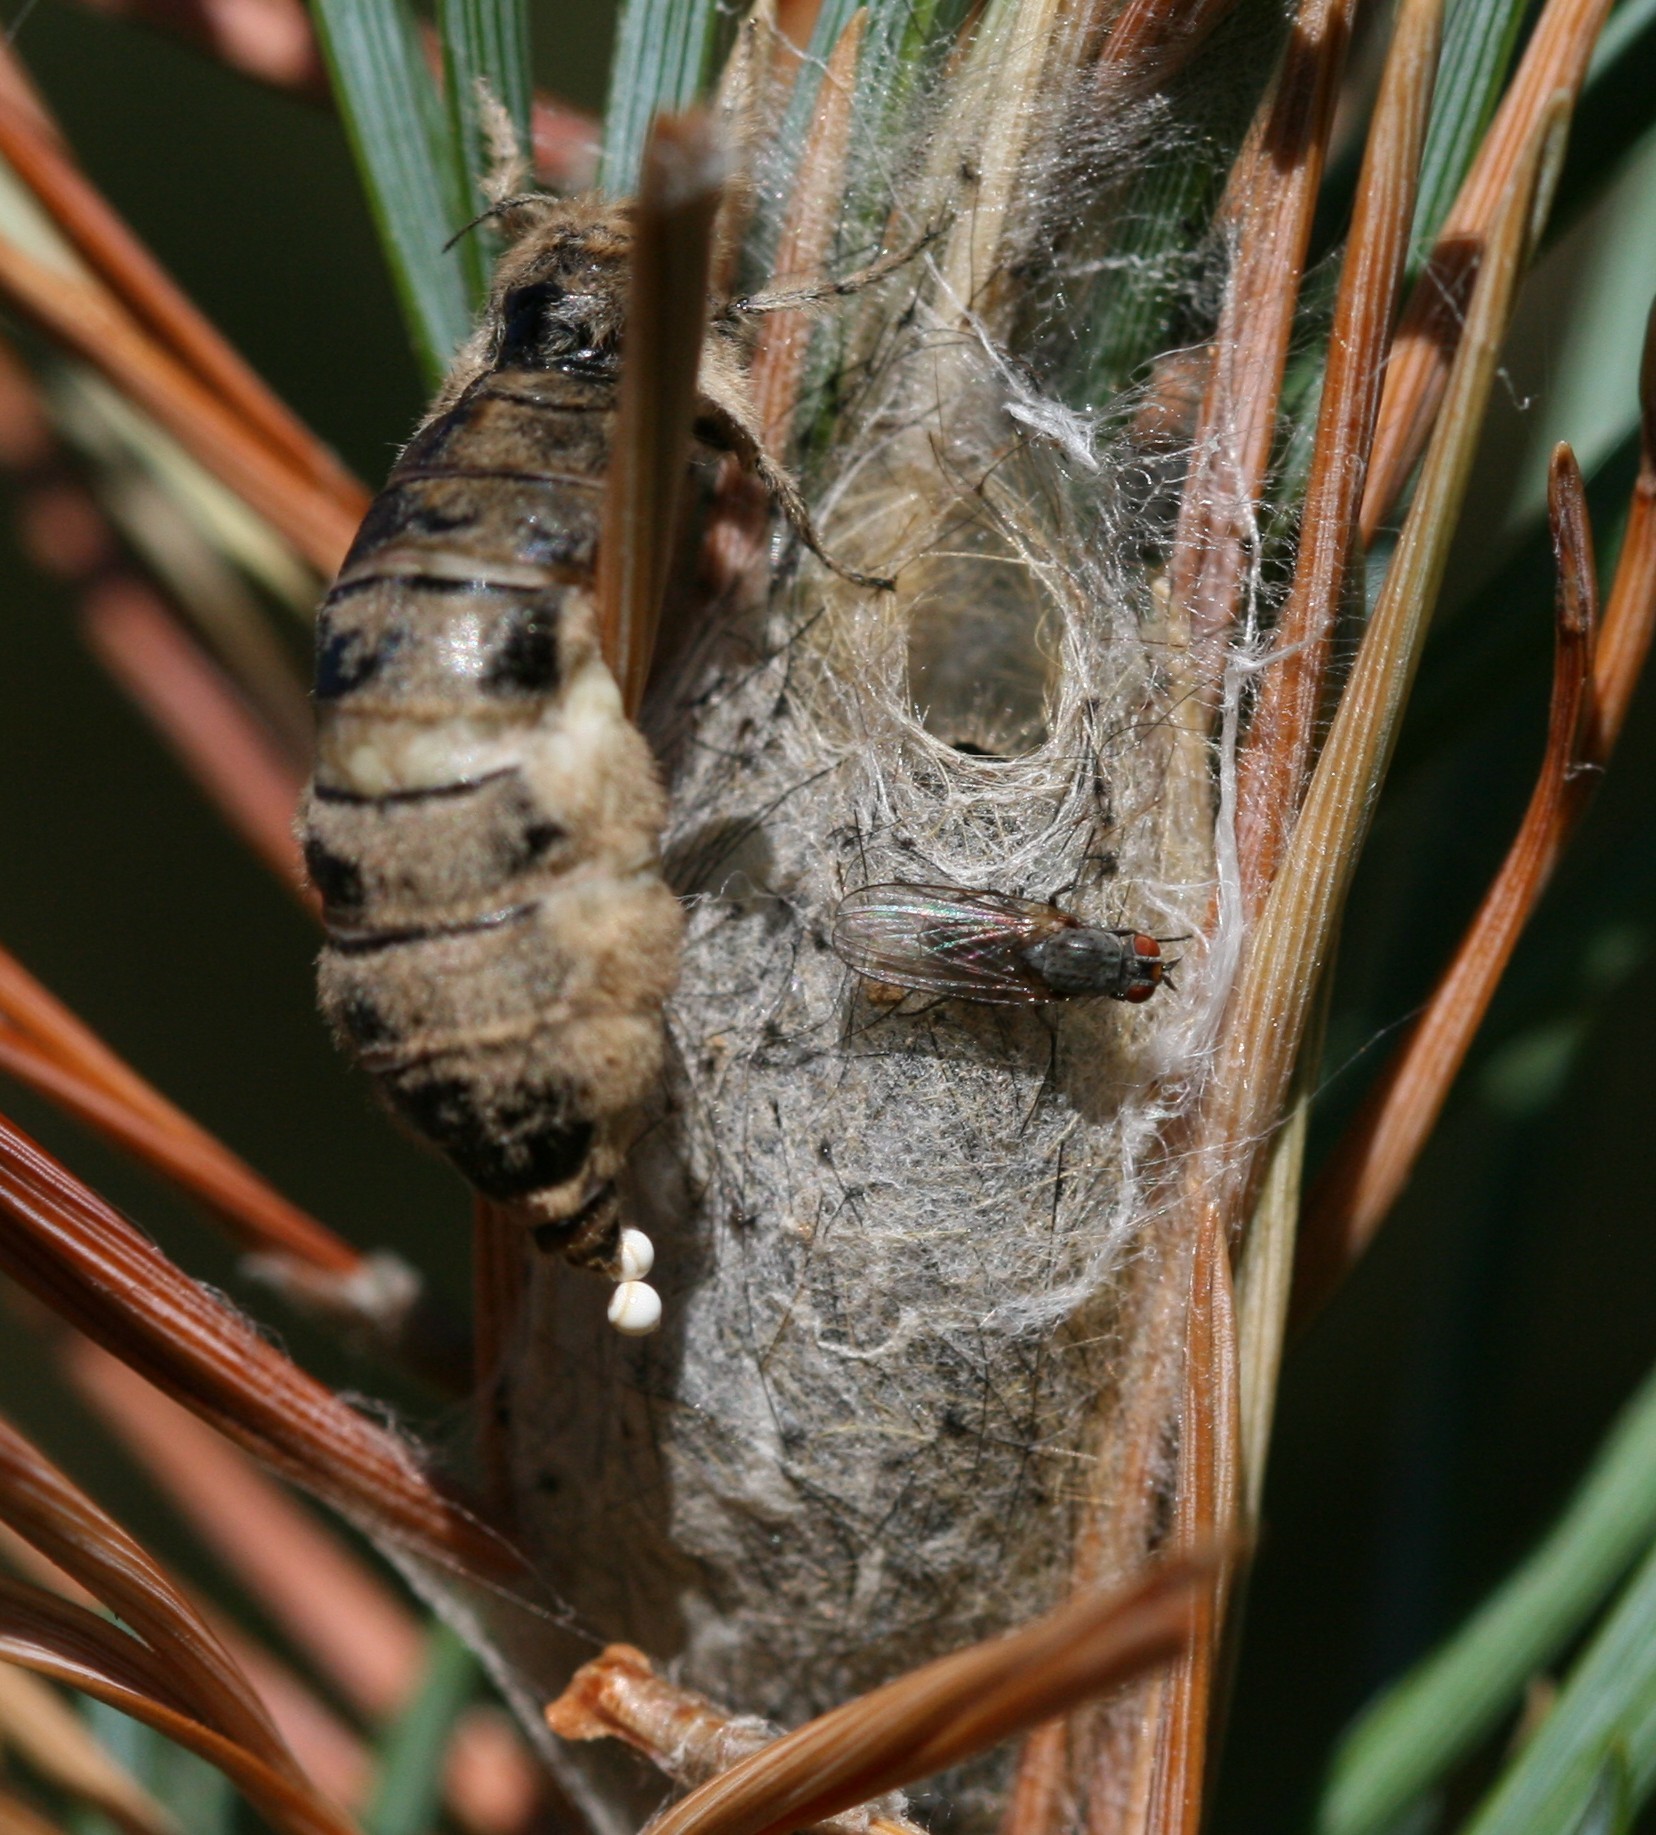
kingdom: Animalia
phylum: Arthropoda
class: Insecta
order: Lepidoptera
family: Erebidae
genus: Orgyia
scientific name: Orgyia antiqua
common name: Vapourer
